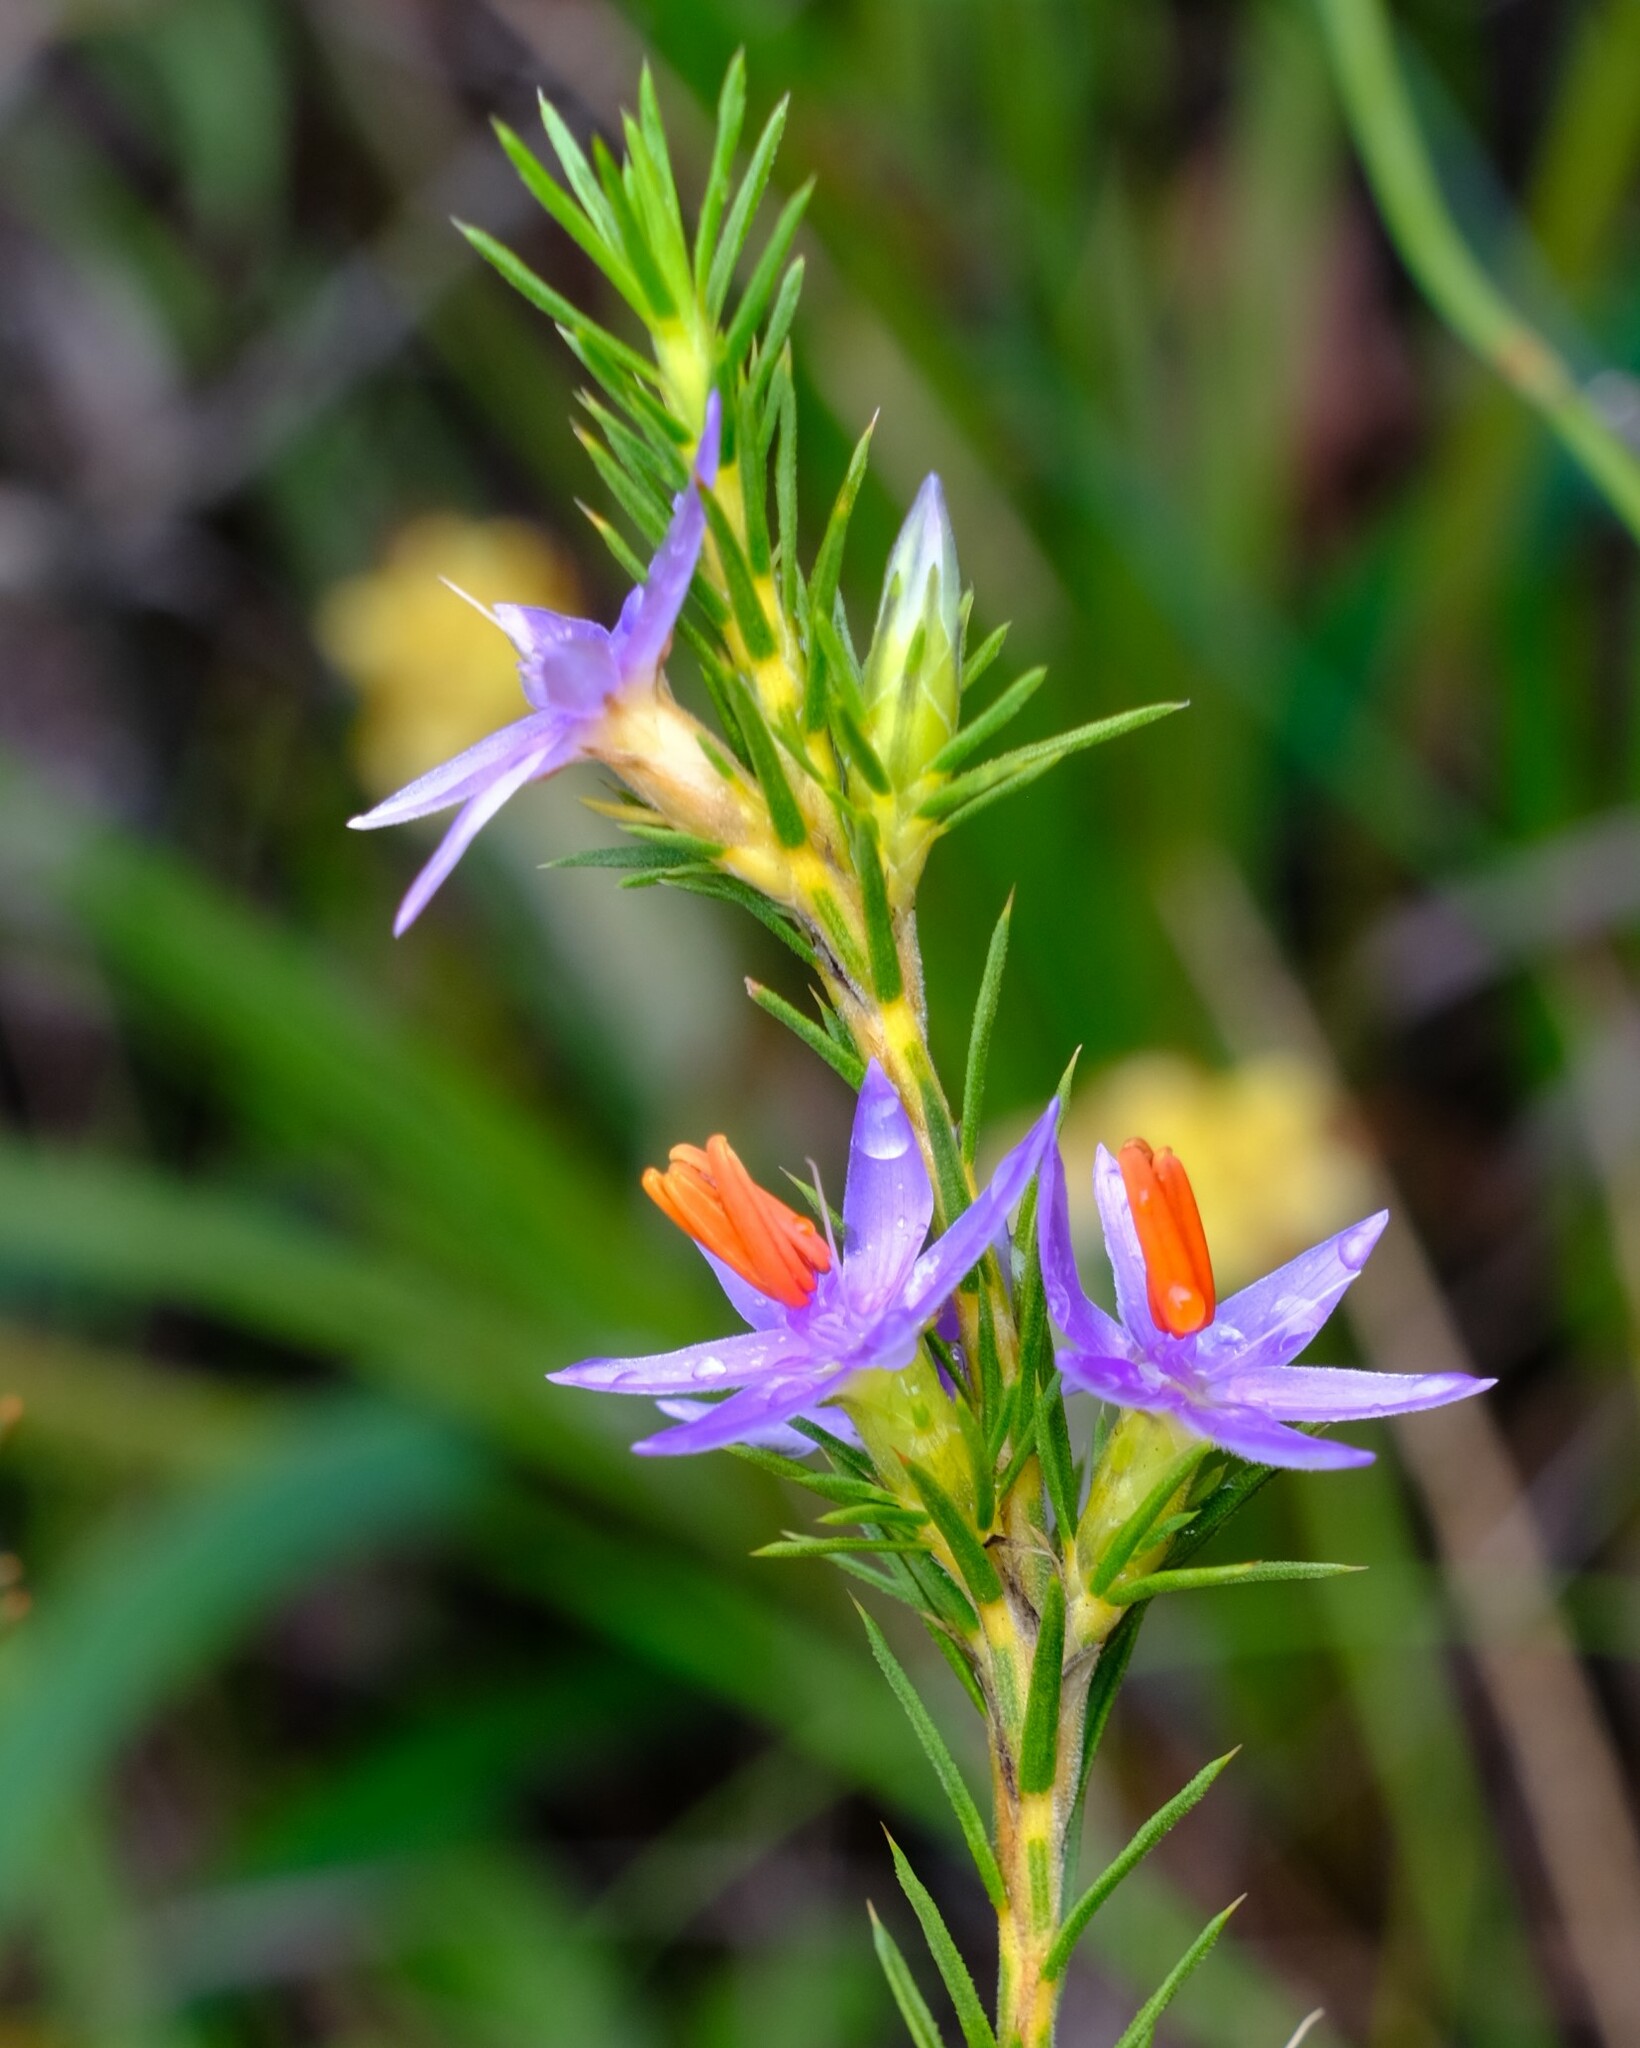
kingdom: Plantae
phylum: Tracheophyta
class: Liliopsida
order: Arecales
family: Dasypogonaceae
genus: Calectasia
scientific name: Calectasia narragara
